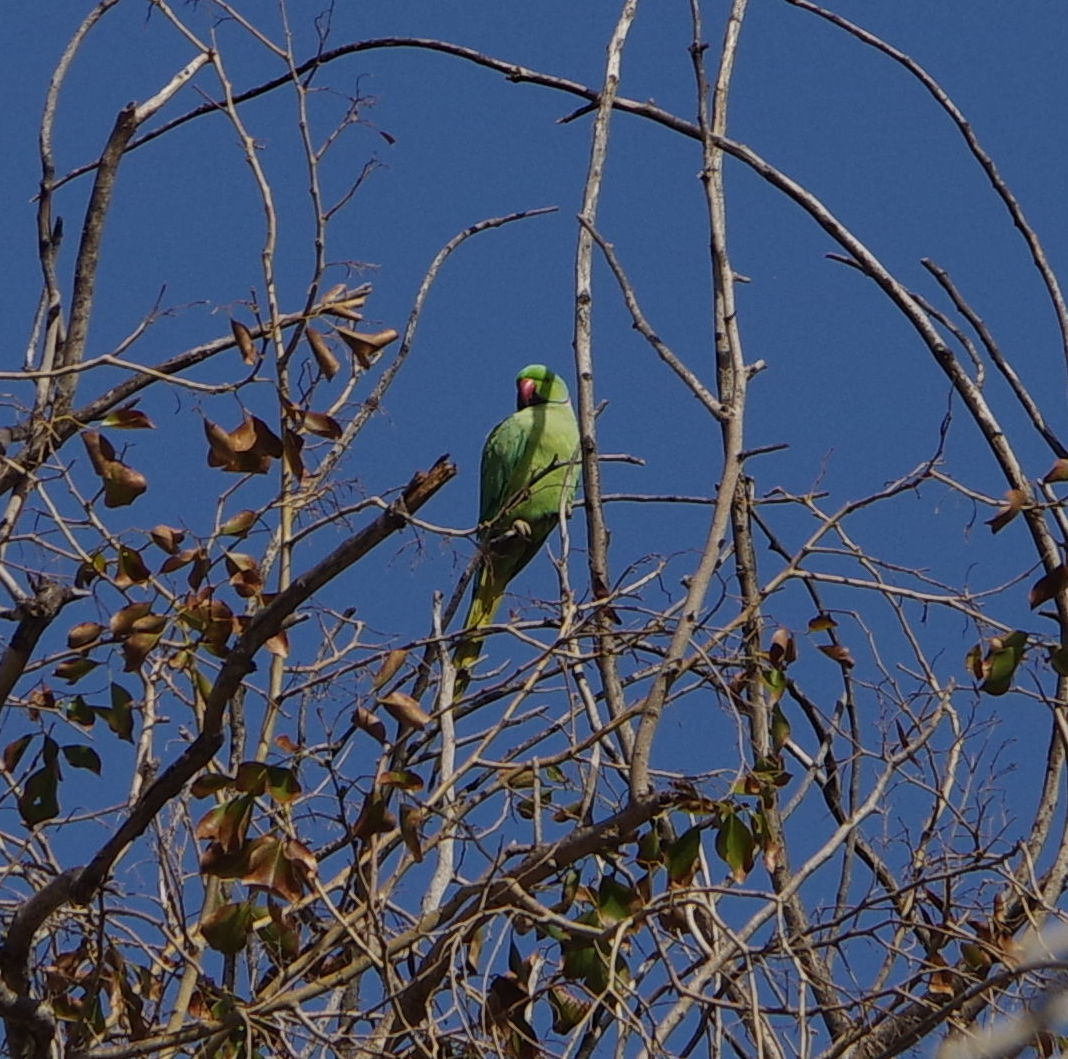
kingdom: Animalia
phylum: Chordata
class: Aves
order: Psittaciformes
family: Psittacidae
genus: Psittacula
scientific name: Psittacula krameri
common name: Rose-ringed parakeet
